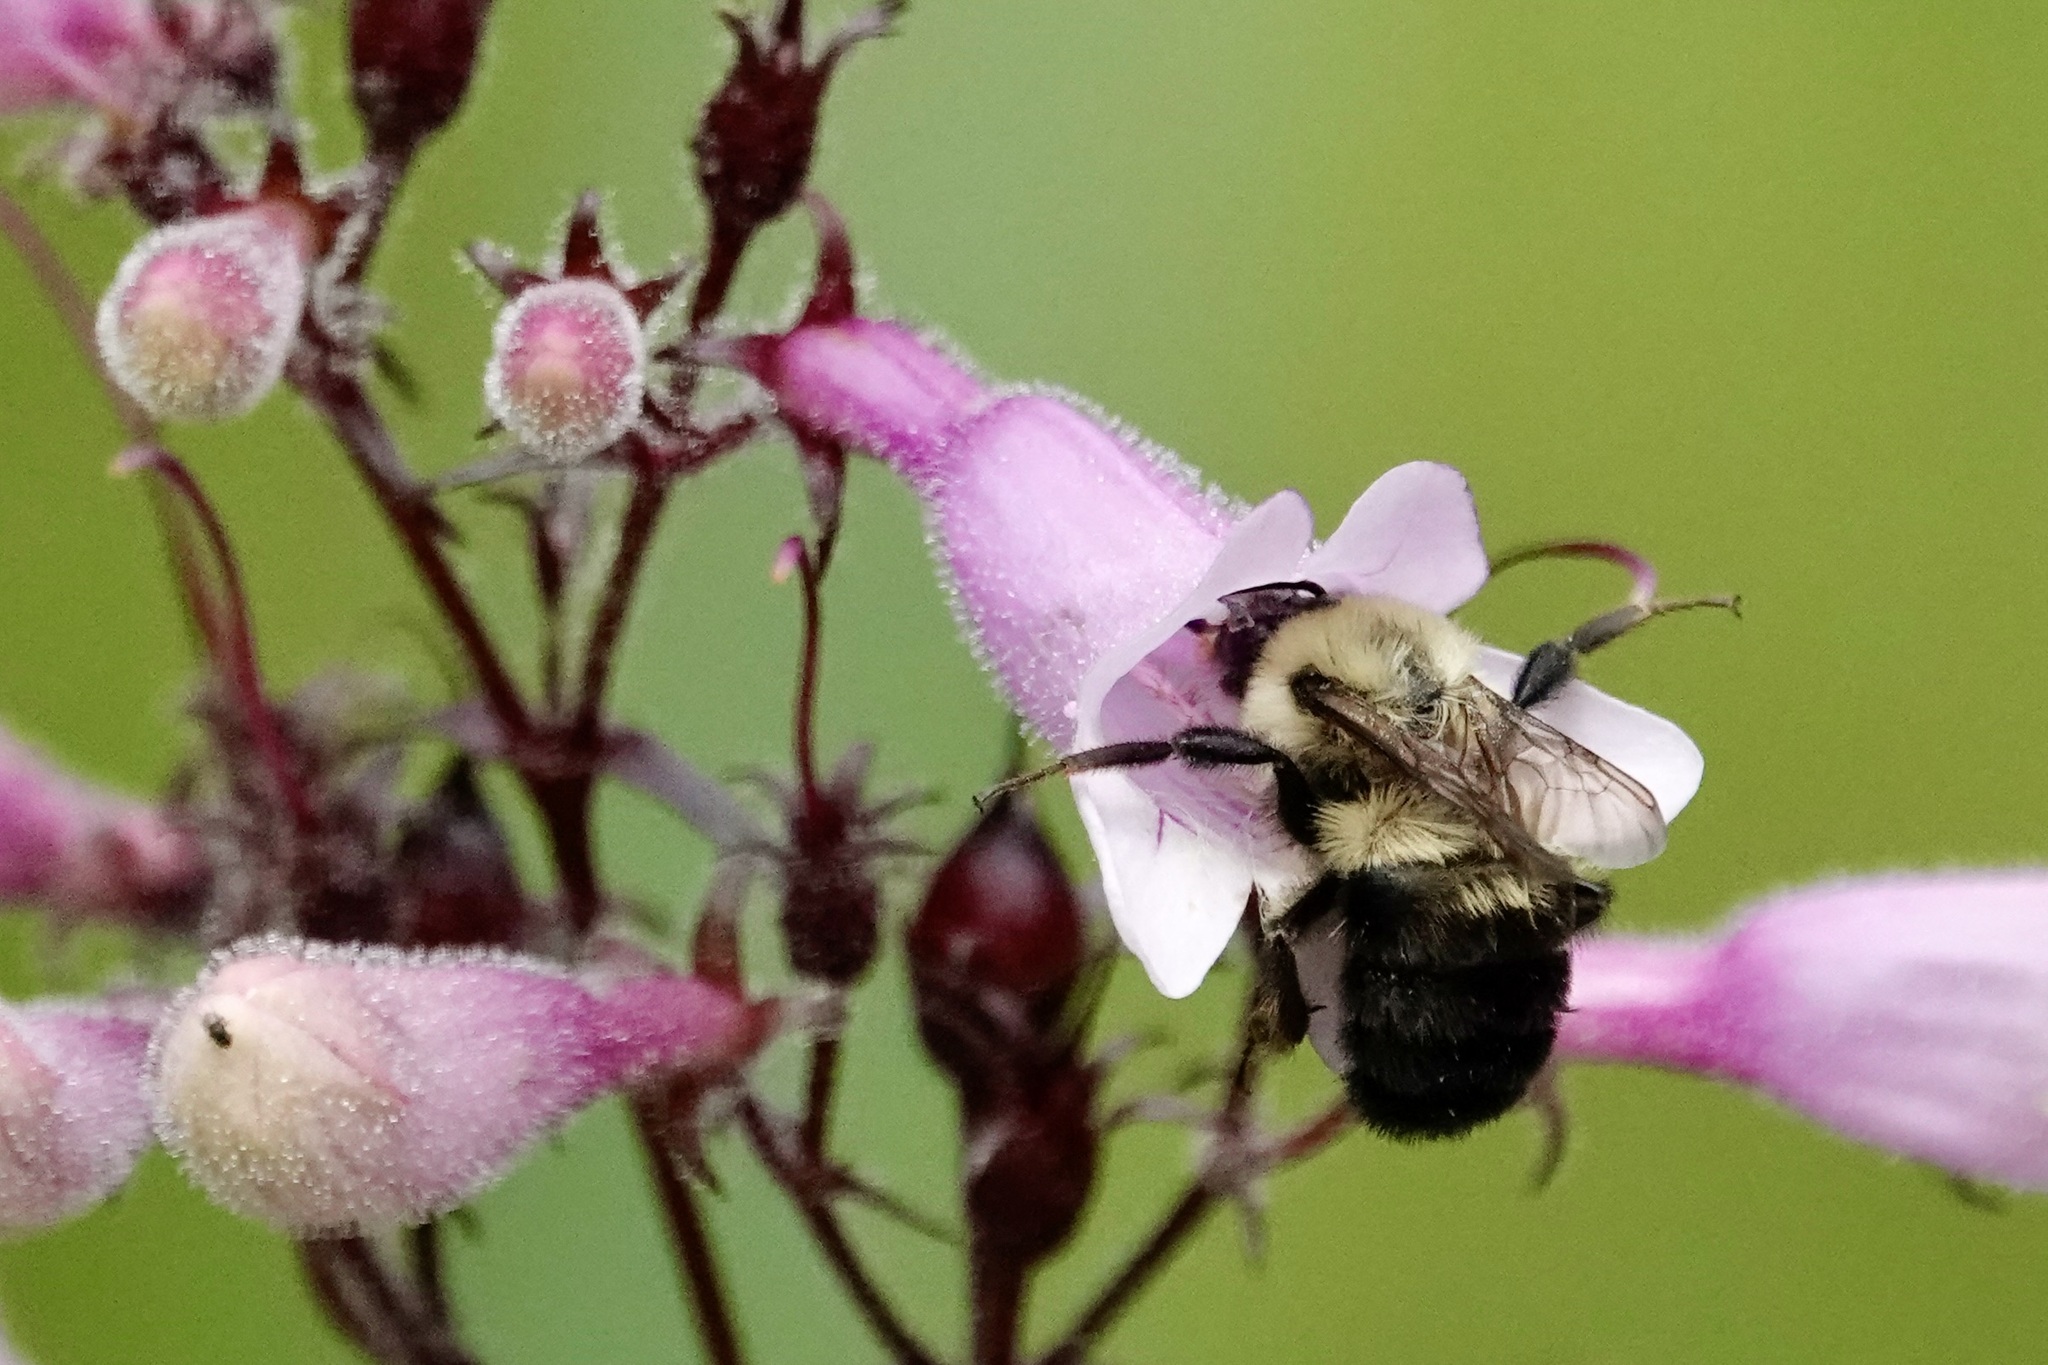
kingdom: Animalia
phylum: Arthropoda
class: Insecta
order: Hymenoptera
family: Apidae
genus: Bombus
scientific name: Bombus bimaculatus
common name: Two-spotted bumble bee
